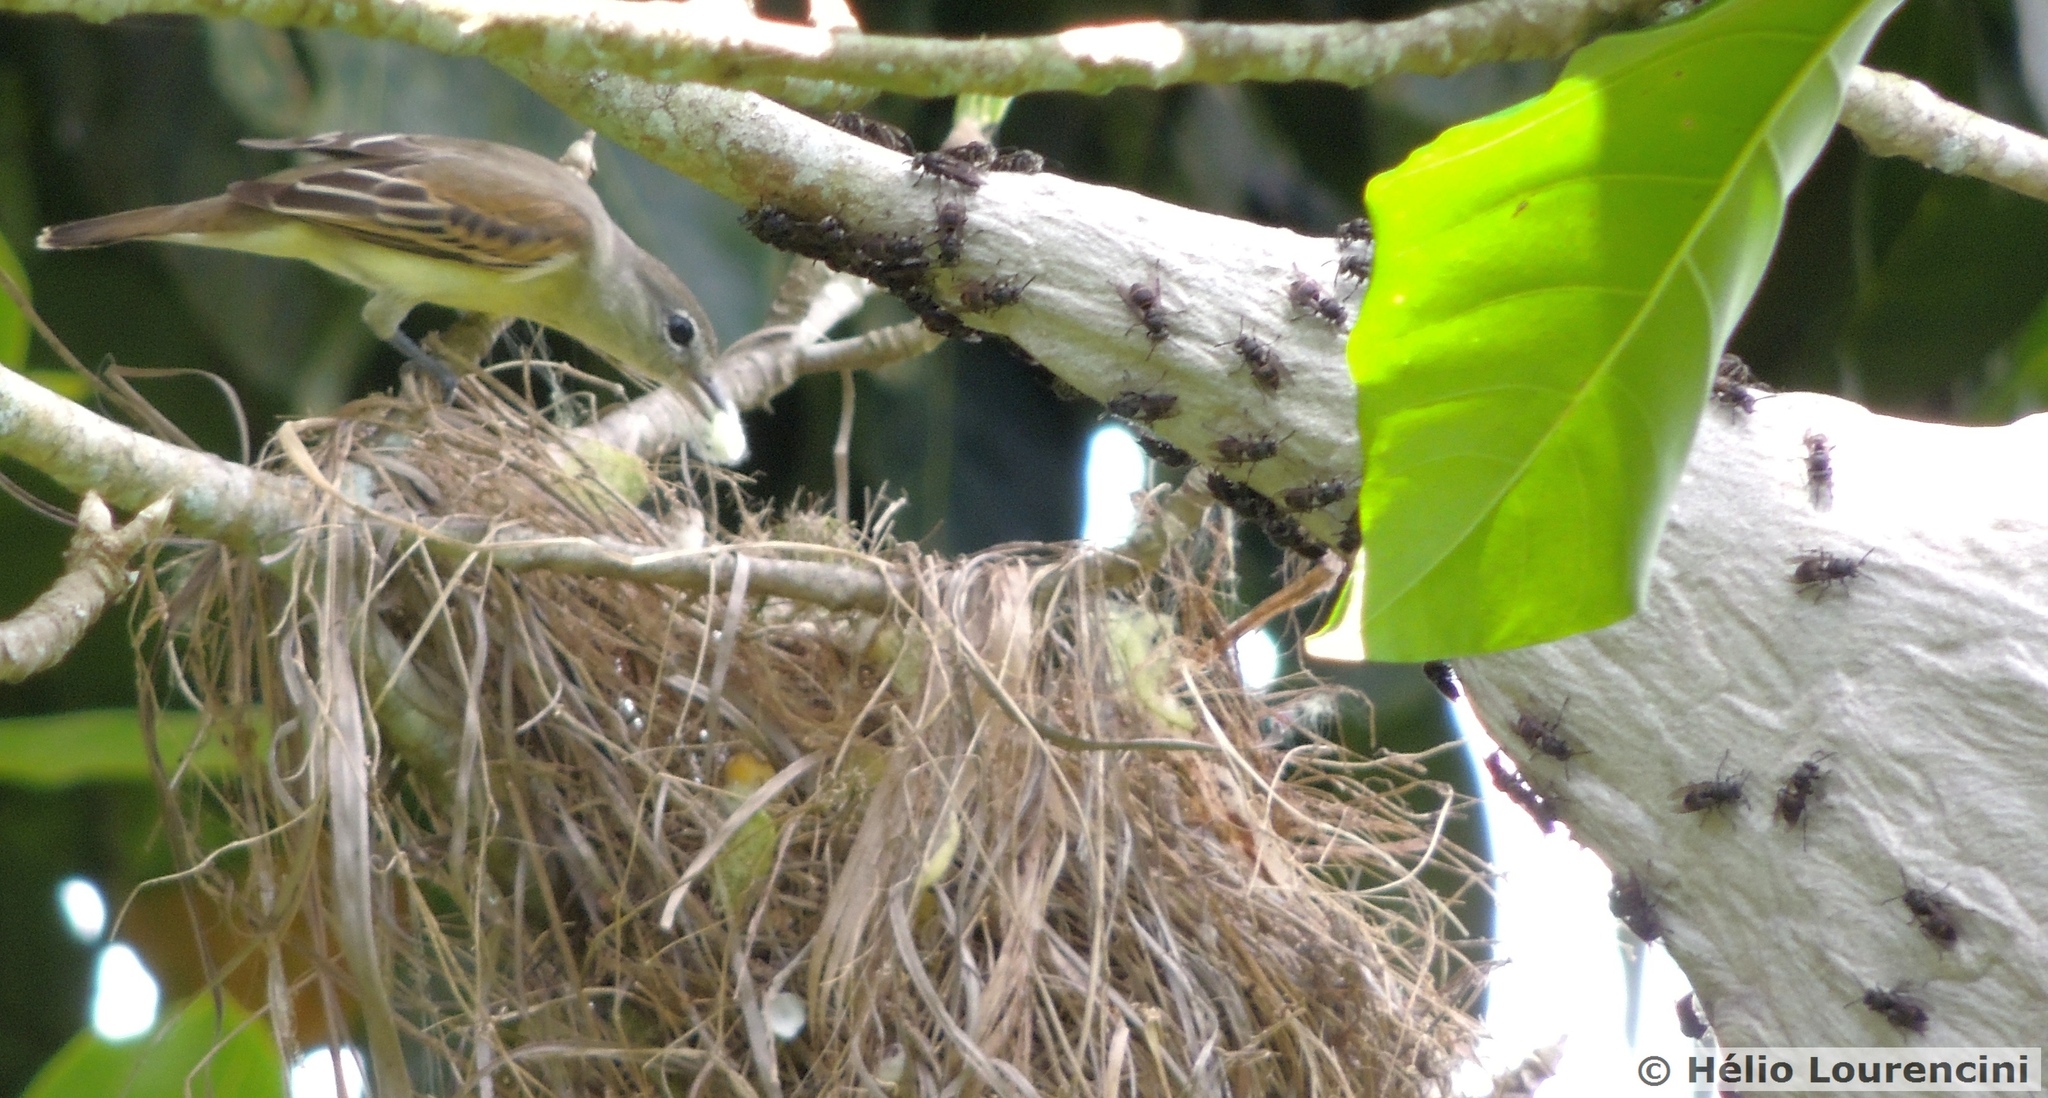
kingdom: Animalia
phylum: Chordata
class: Aves
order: Passeriformes
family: Cotingidae
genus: Pachyramphus
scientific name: Pachyramphus polychopterus
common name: White-winged becard
